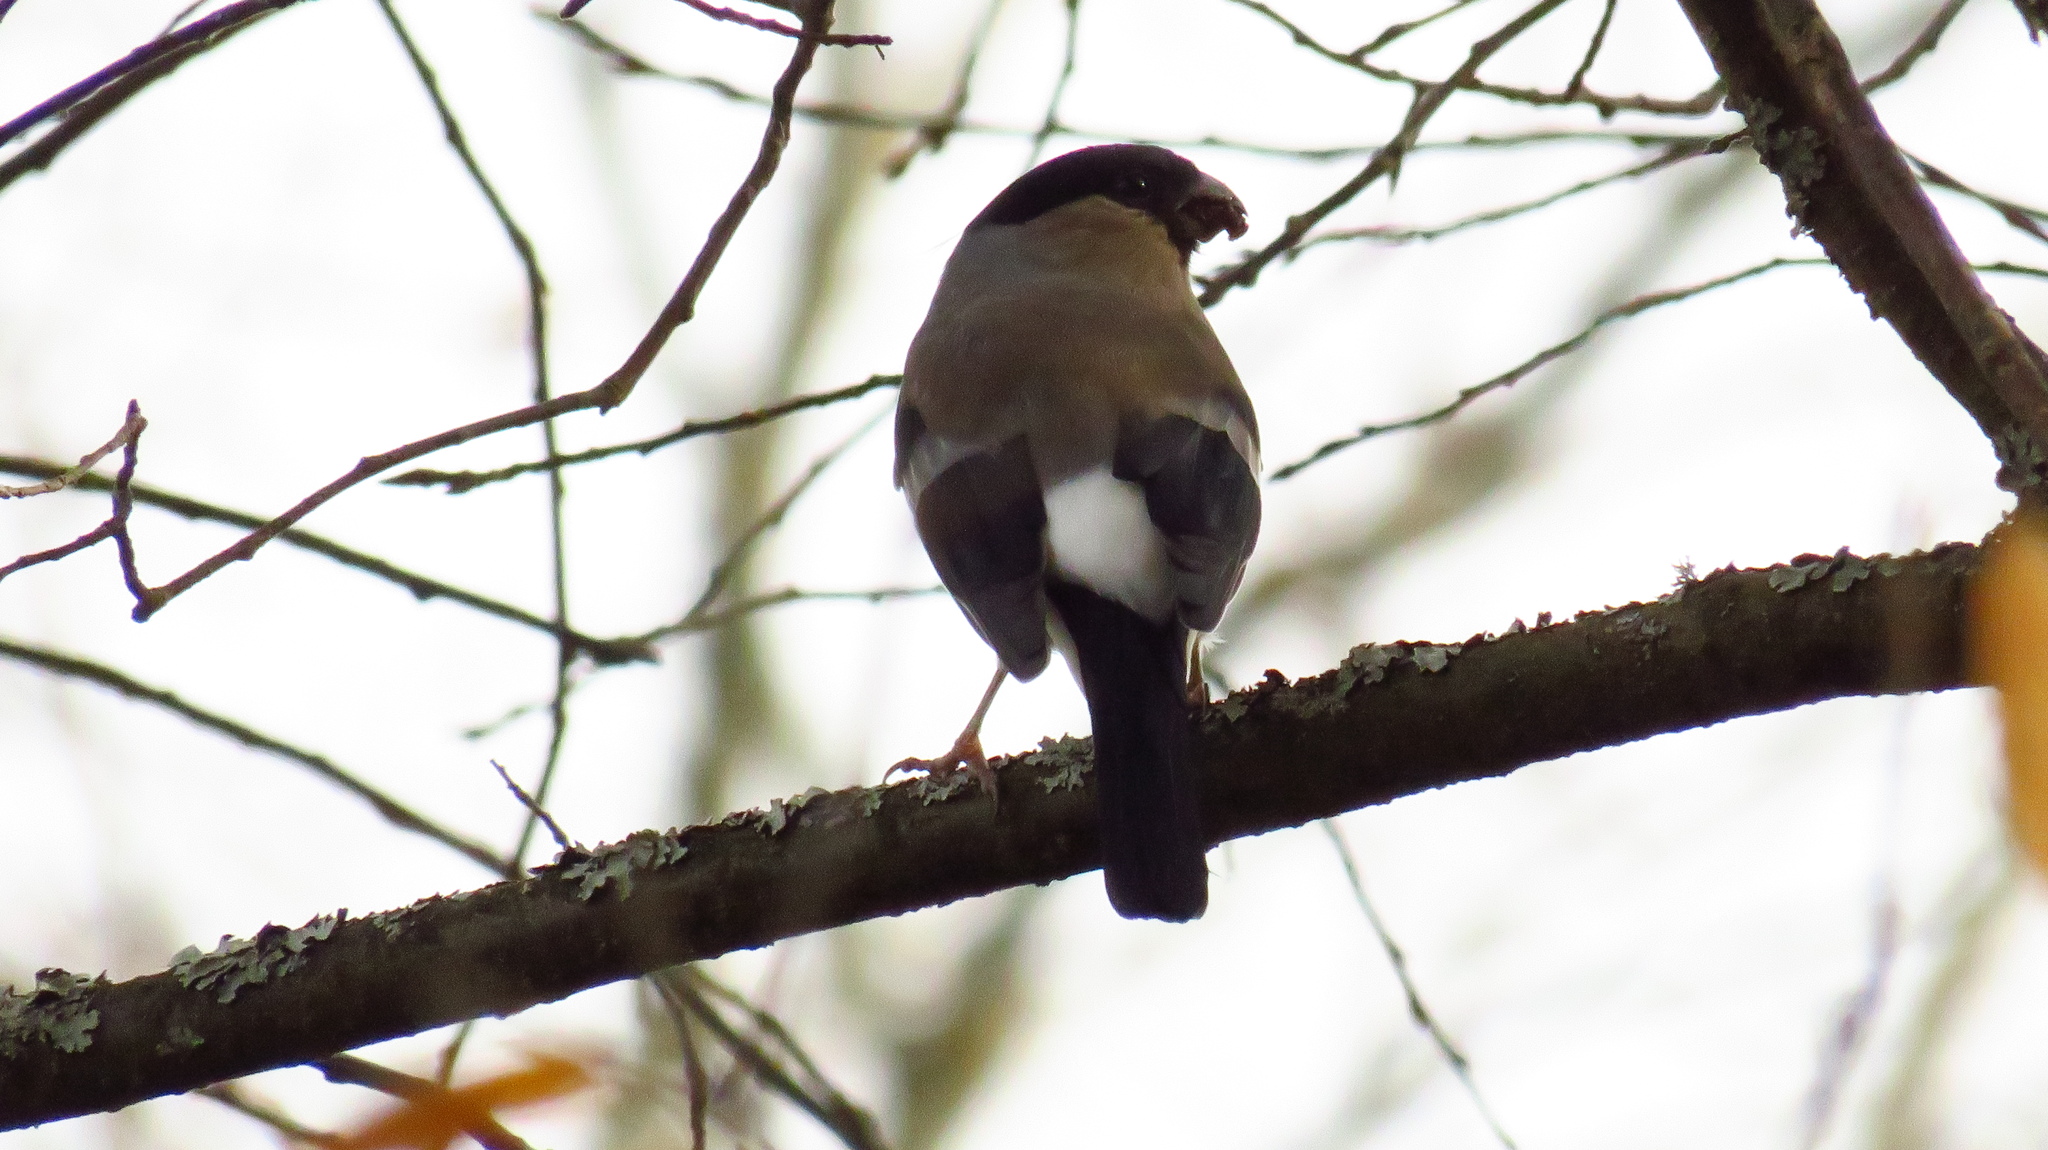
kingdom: Animalia
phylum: Chordata
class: Aves
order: Passeriformes
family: Fringillidae
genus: Pyrrhula
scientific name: Pyrrhula pyrrhula
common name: Eurasian bullfinch
